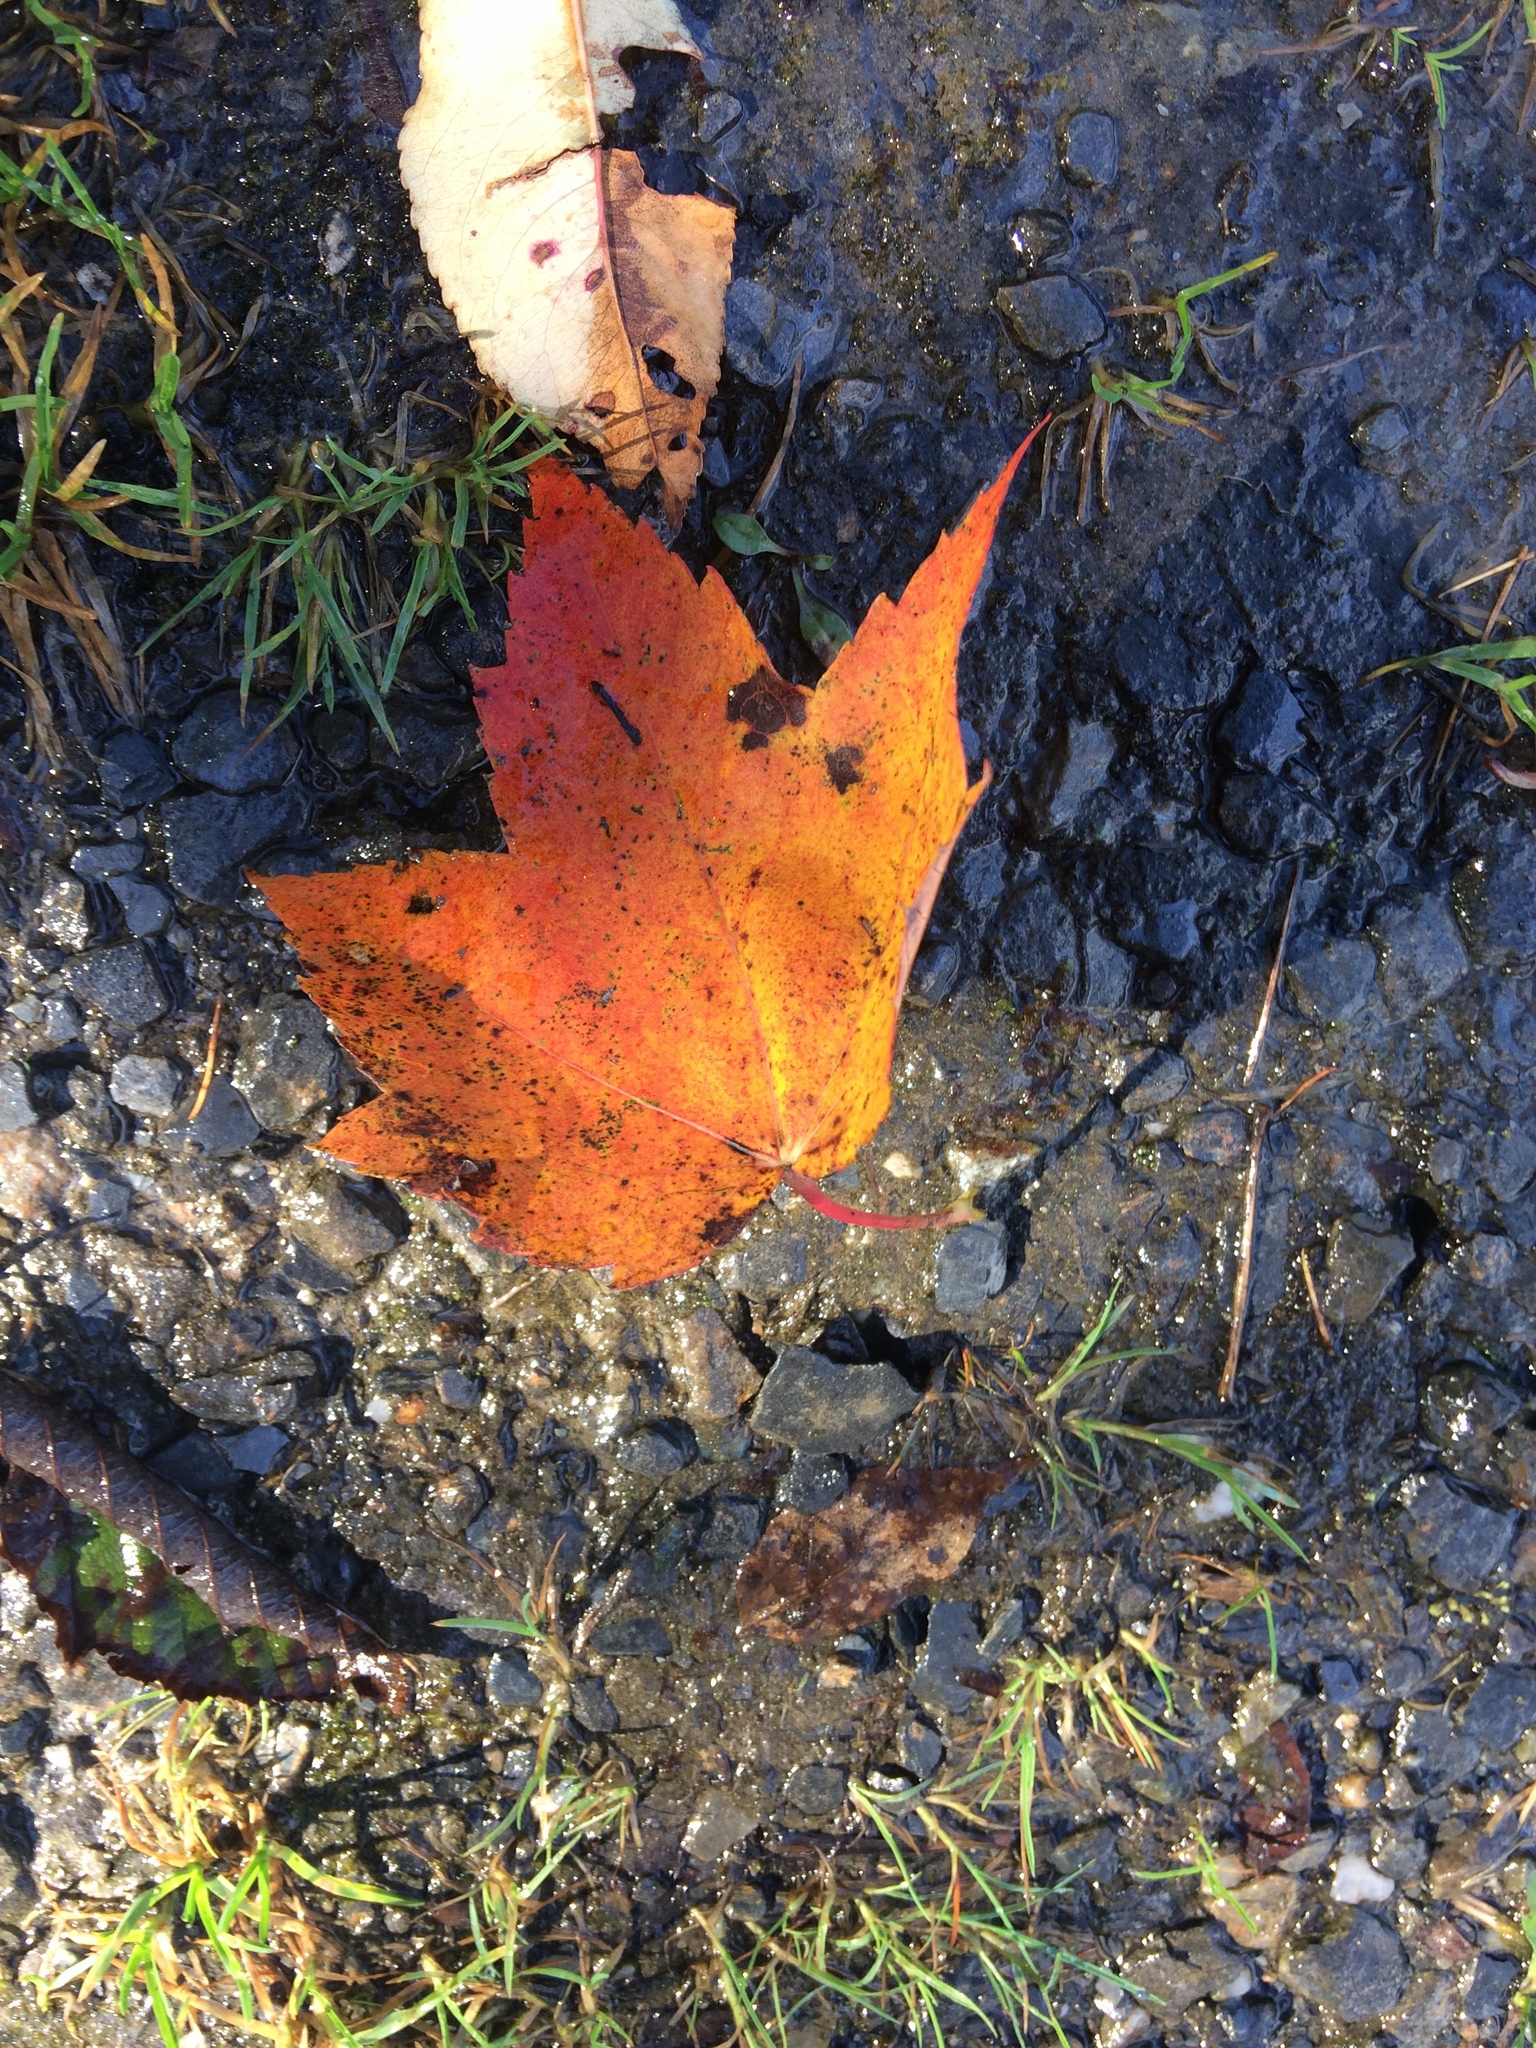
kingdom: Plantae
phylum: Tracheophyta
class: Magnoliopsida
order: Sapindales
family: Sapindaceae
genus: Acer
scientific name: Acer rubrum
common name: Red maple
